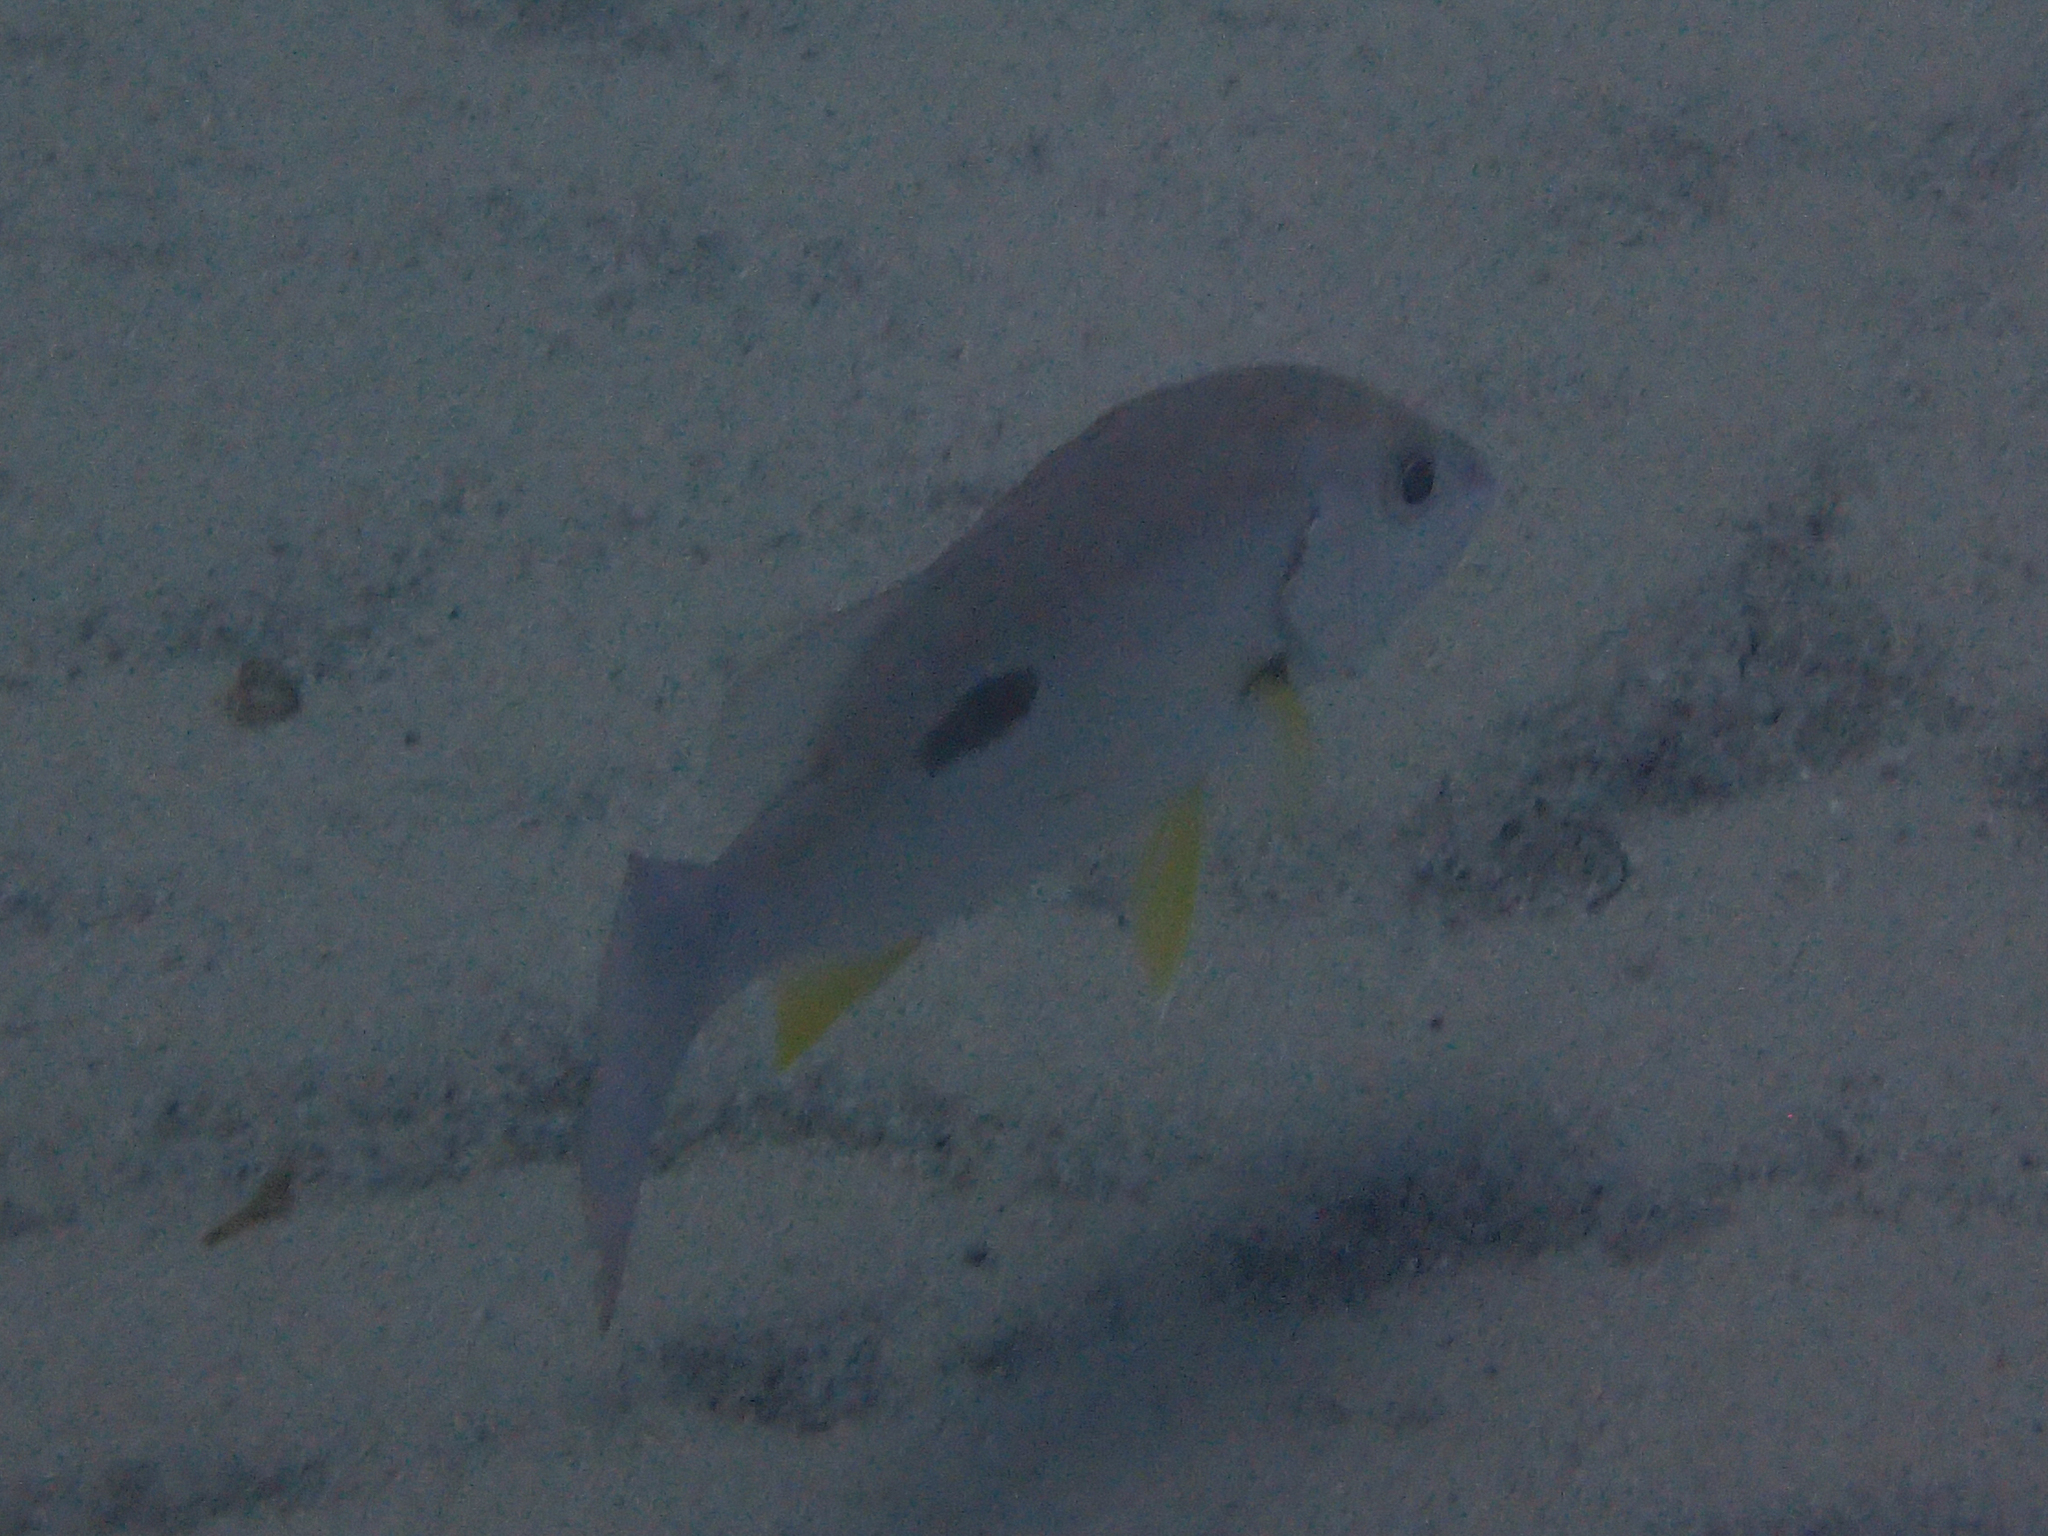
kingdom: Animalia
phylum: Chordata
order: Perciformes
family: Lutjanidae
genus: Lutjanus
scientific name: Lutjanus russellii
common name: Russell's snapper
